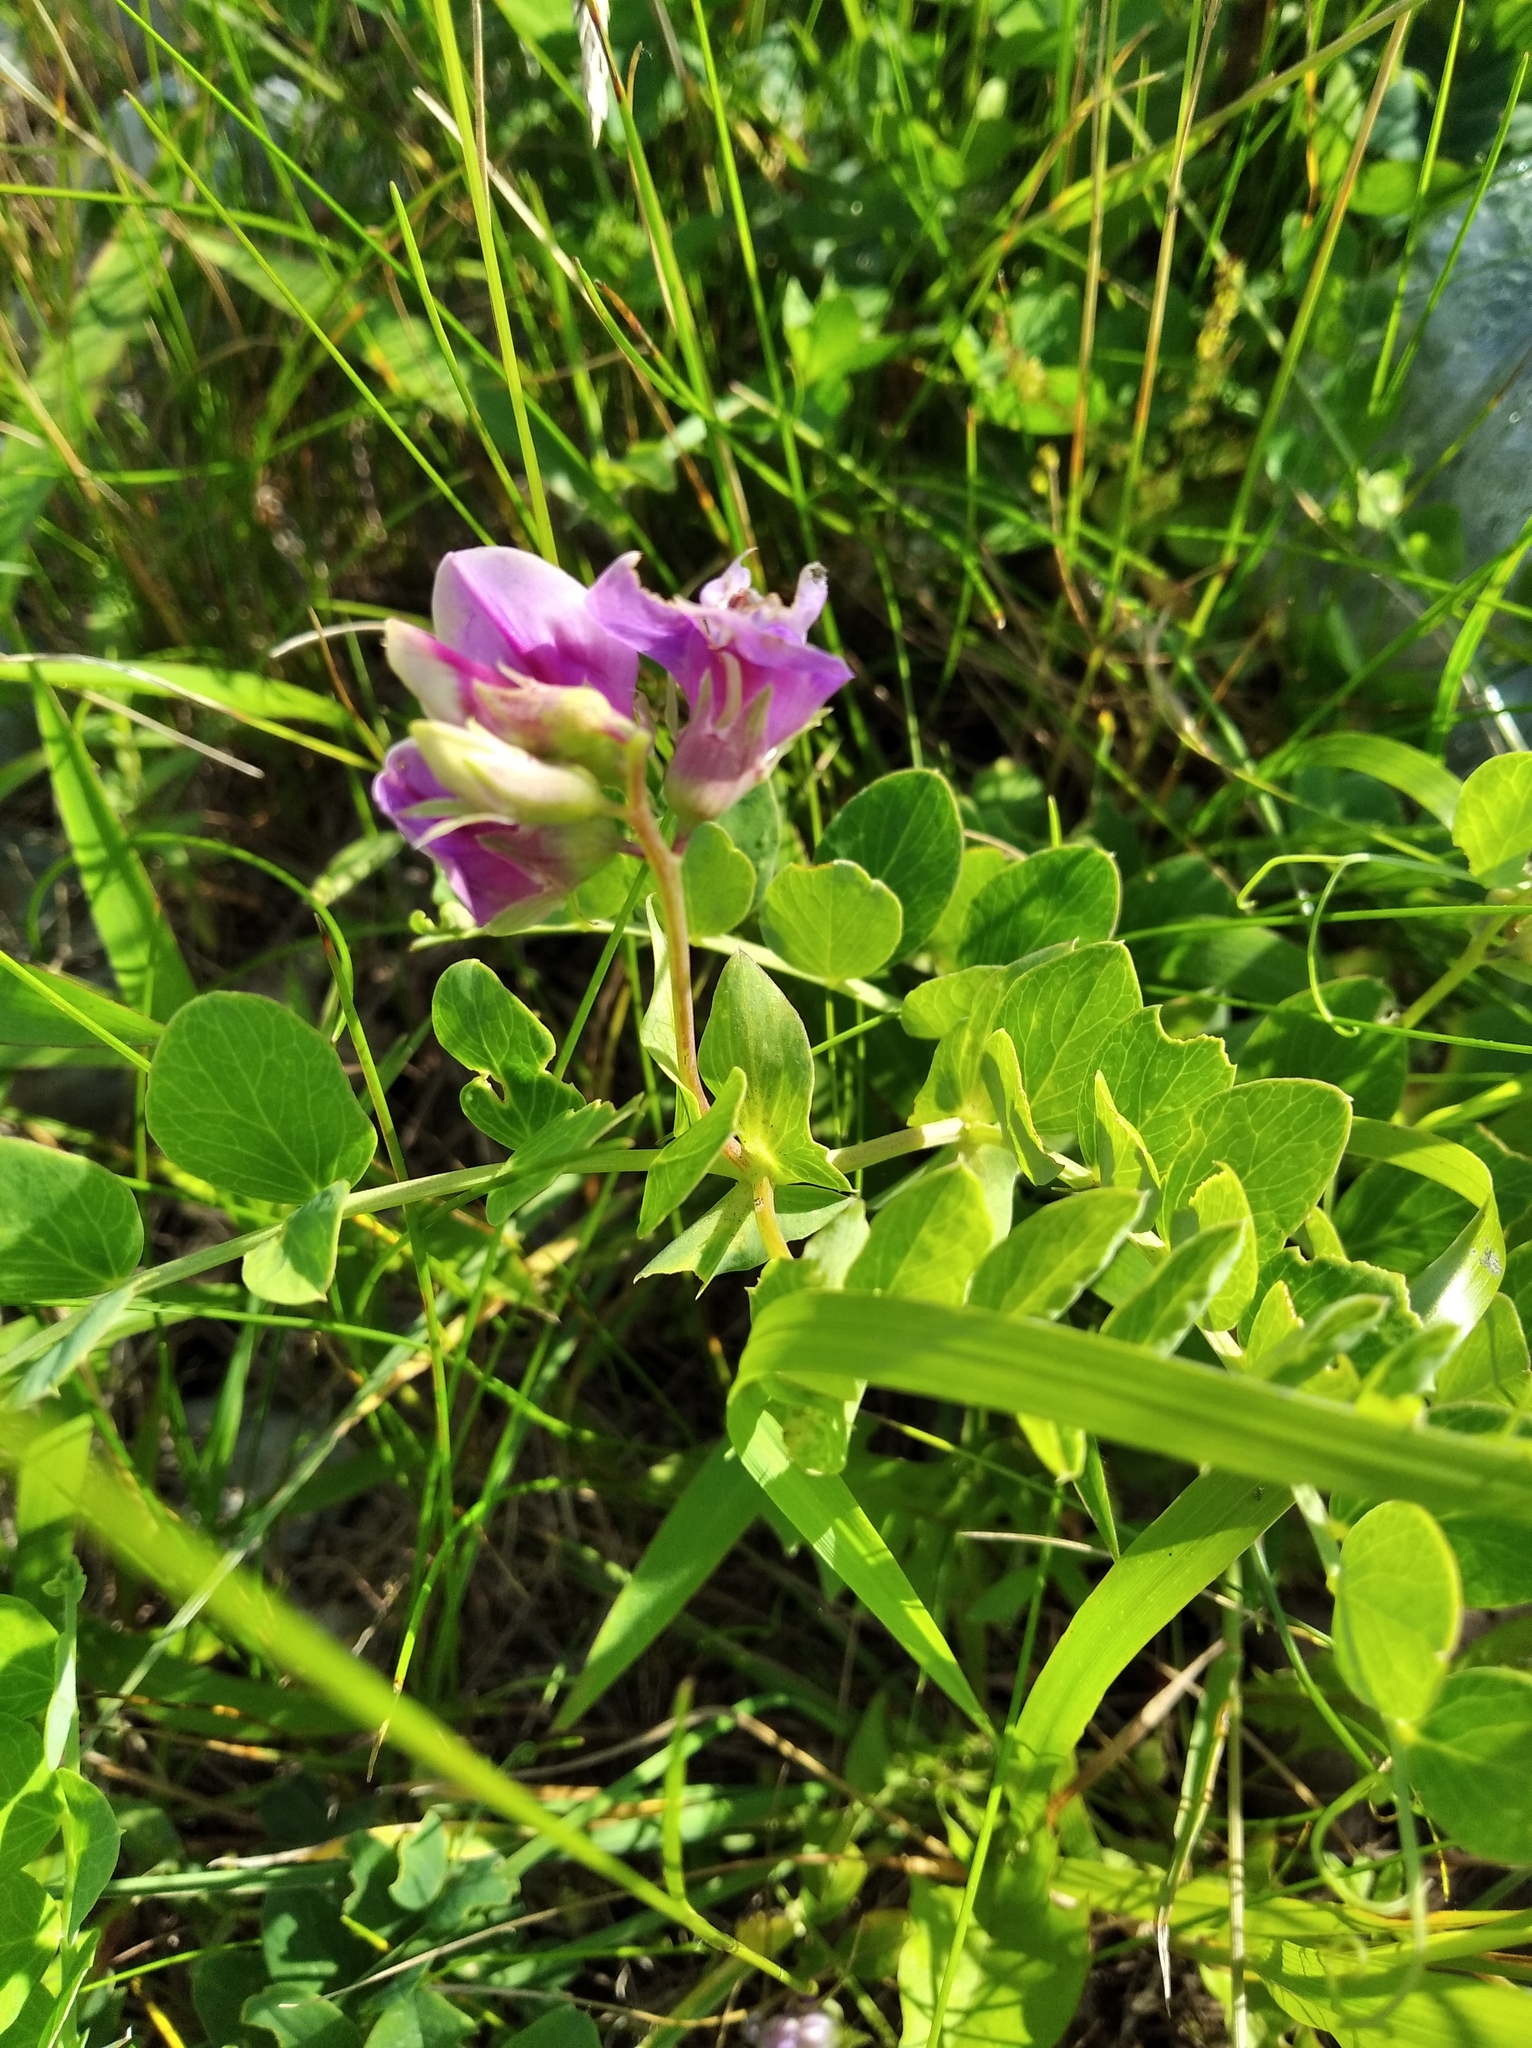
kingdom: Plantae
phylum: Tracheophyta
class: Magnoliopsida
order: Fabales
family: Fabaceae
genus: Lathyrus
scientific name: Lathyrus japonicus
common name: Sea pea
